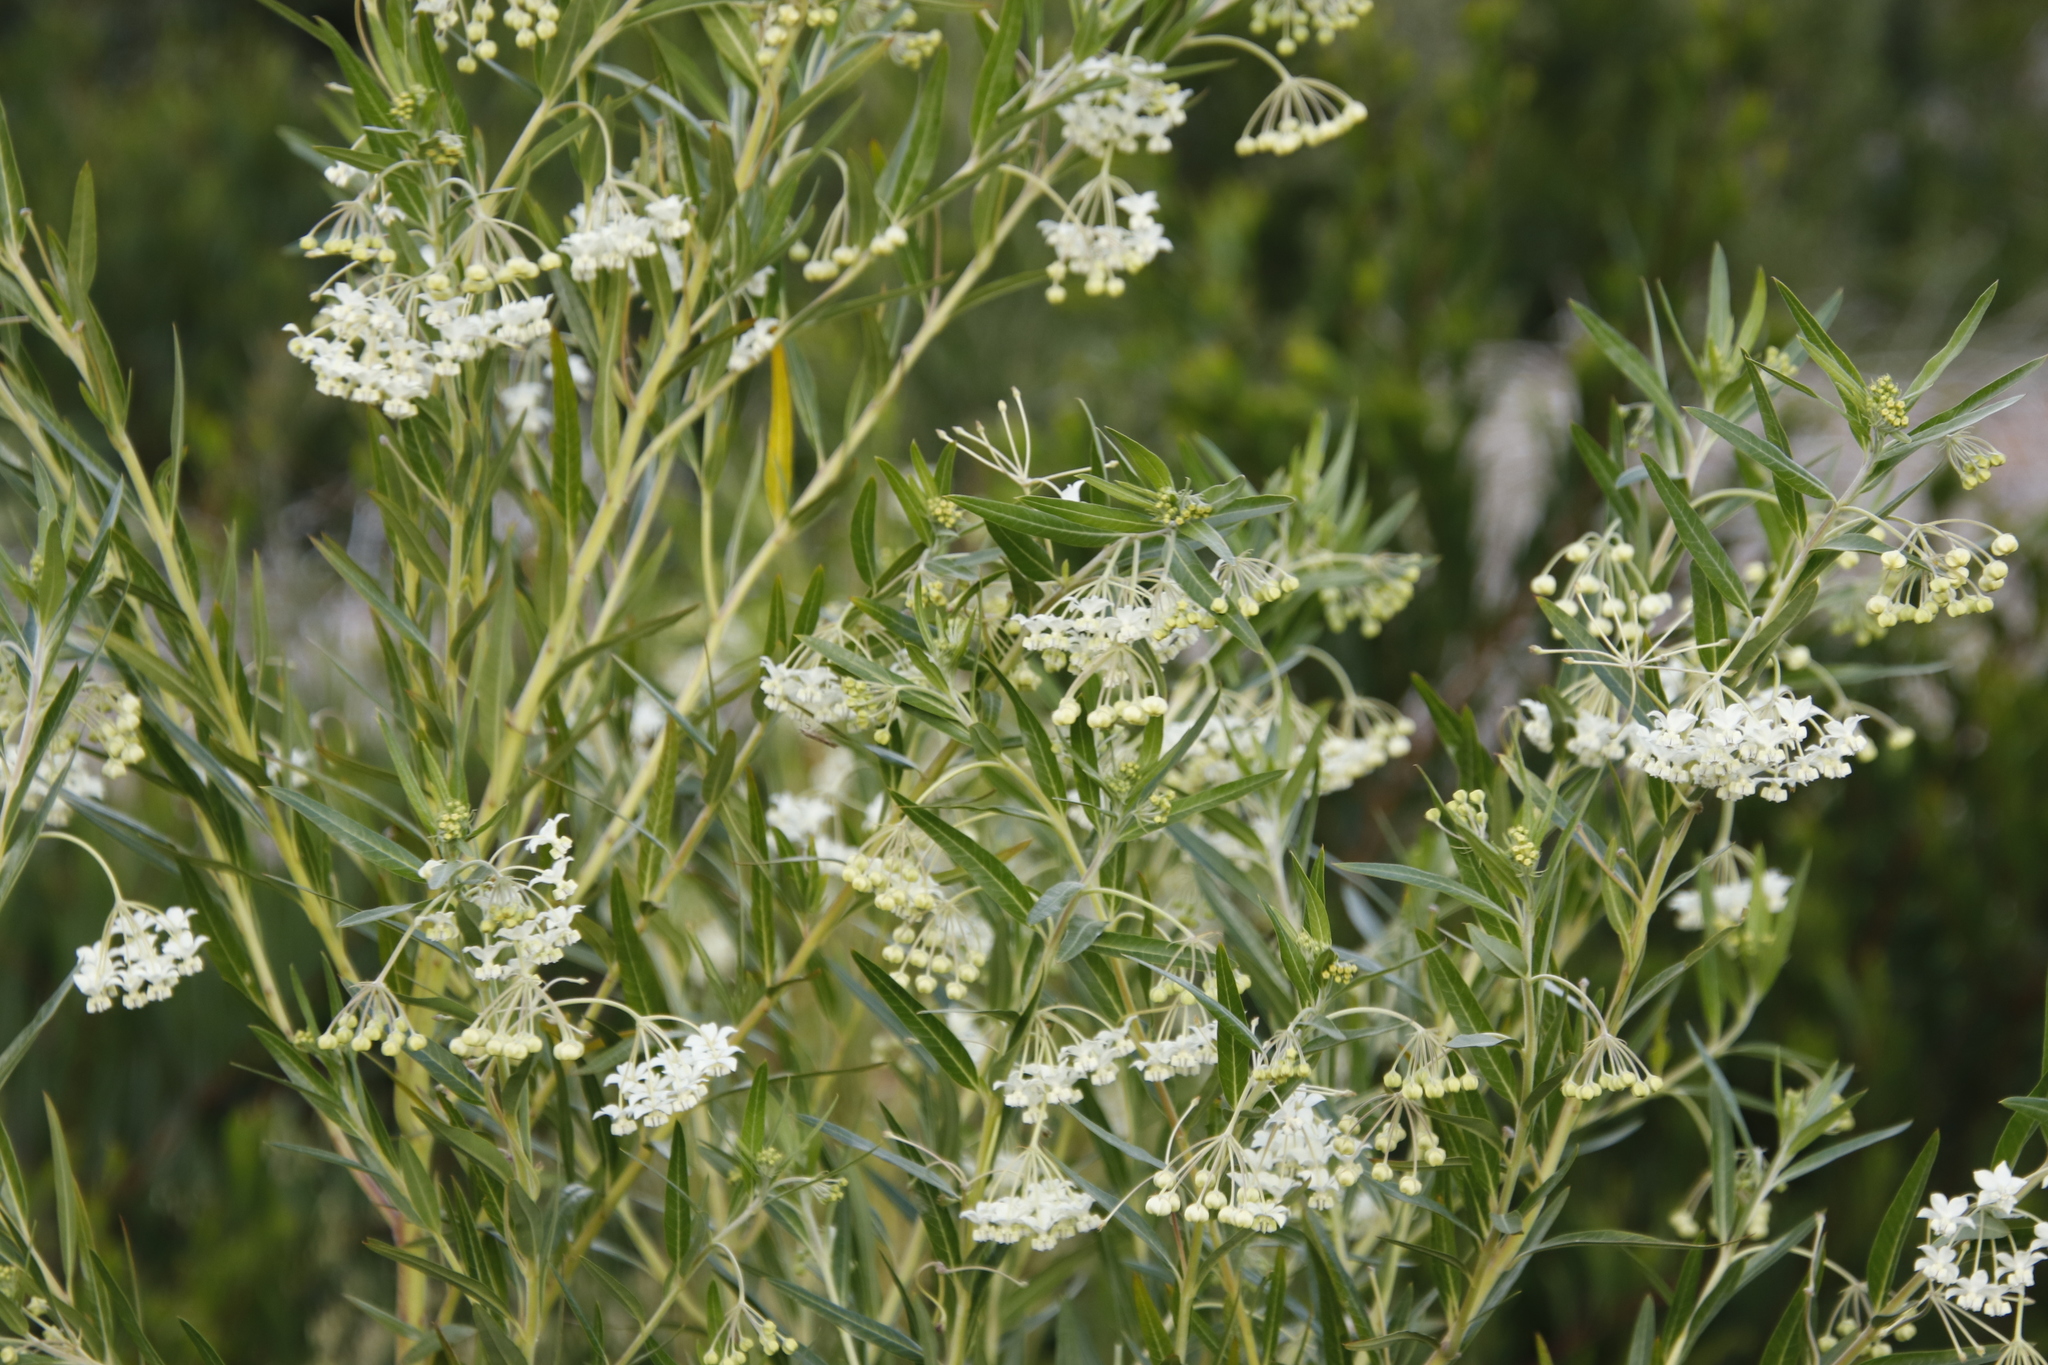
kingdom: Plantae
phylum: Tracheophyta
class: Magnoliopsida
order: Gentianales
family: Apocynaceae
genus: Gomphocarpus
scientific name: Gomphocarpus fruticosus
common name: Milkweed
